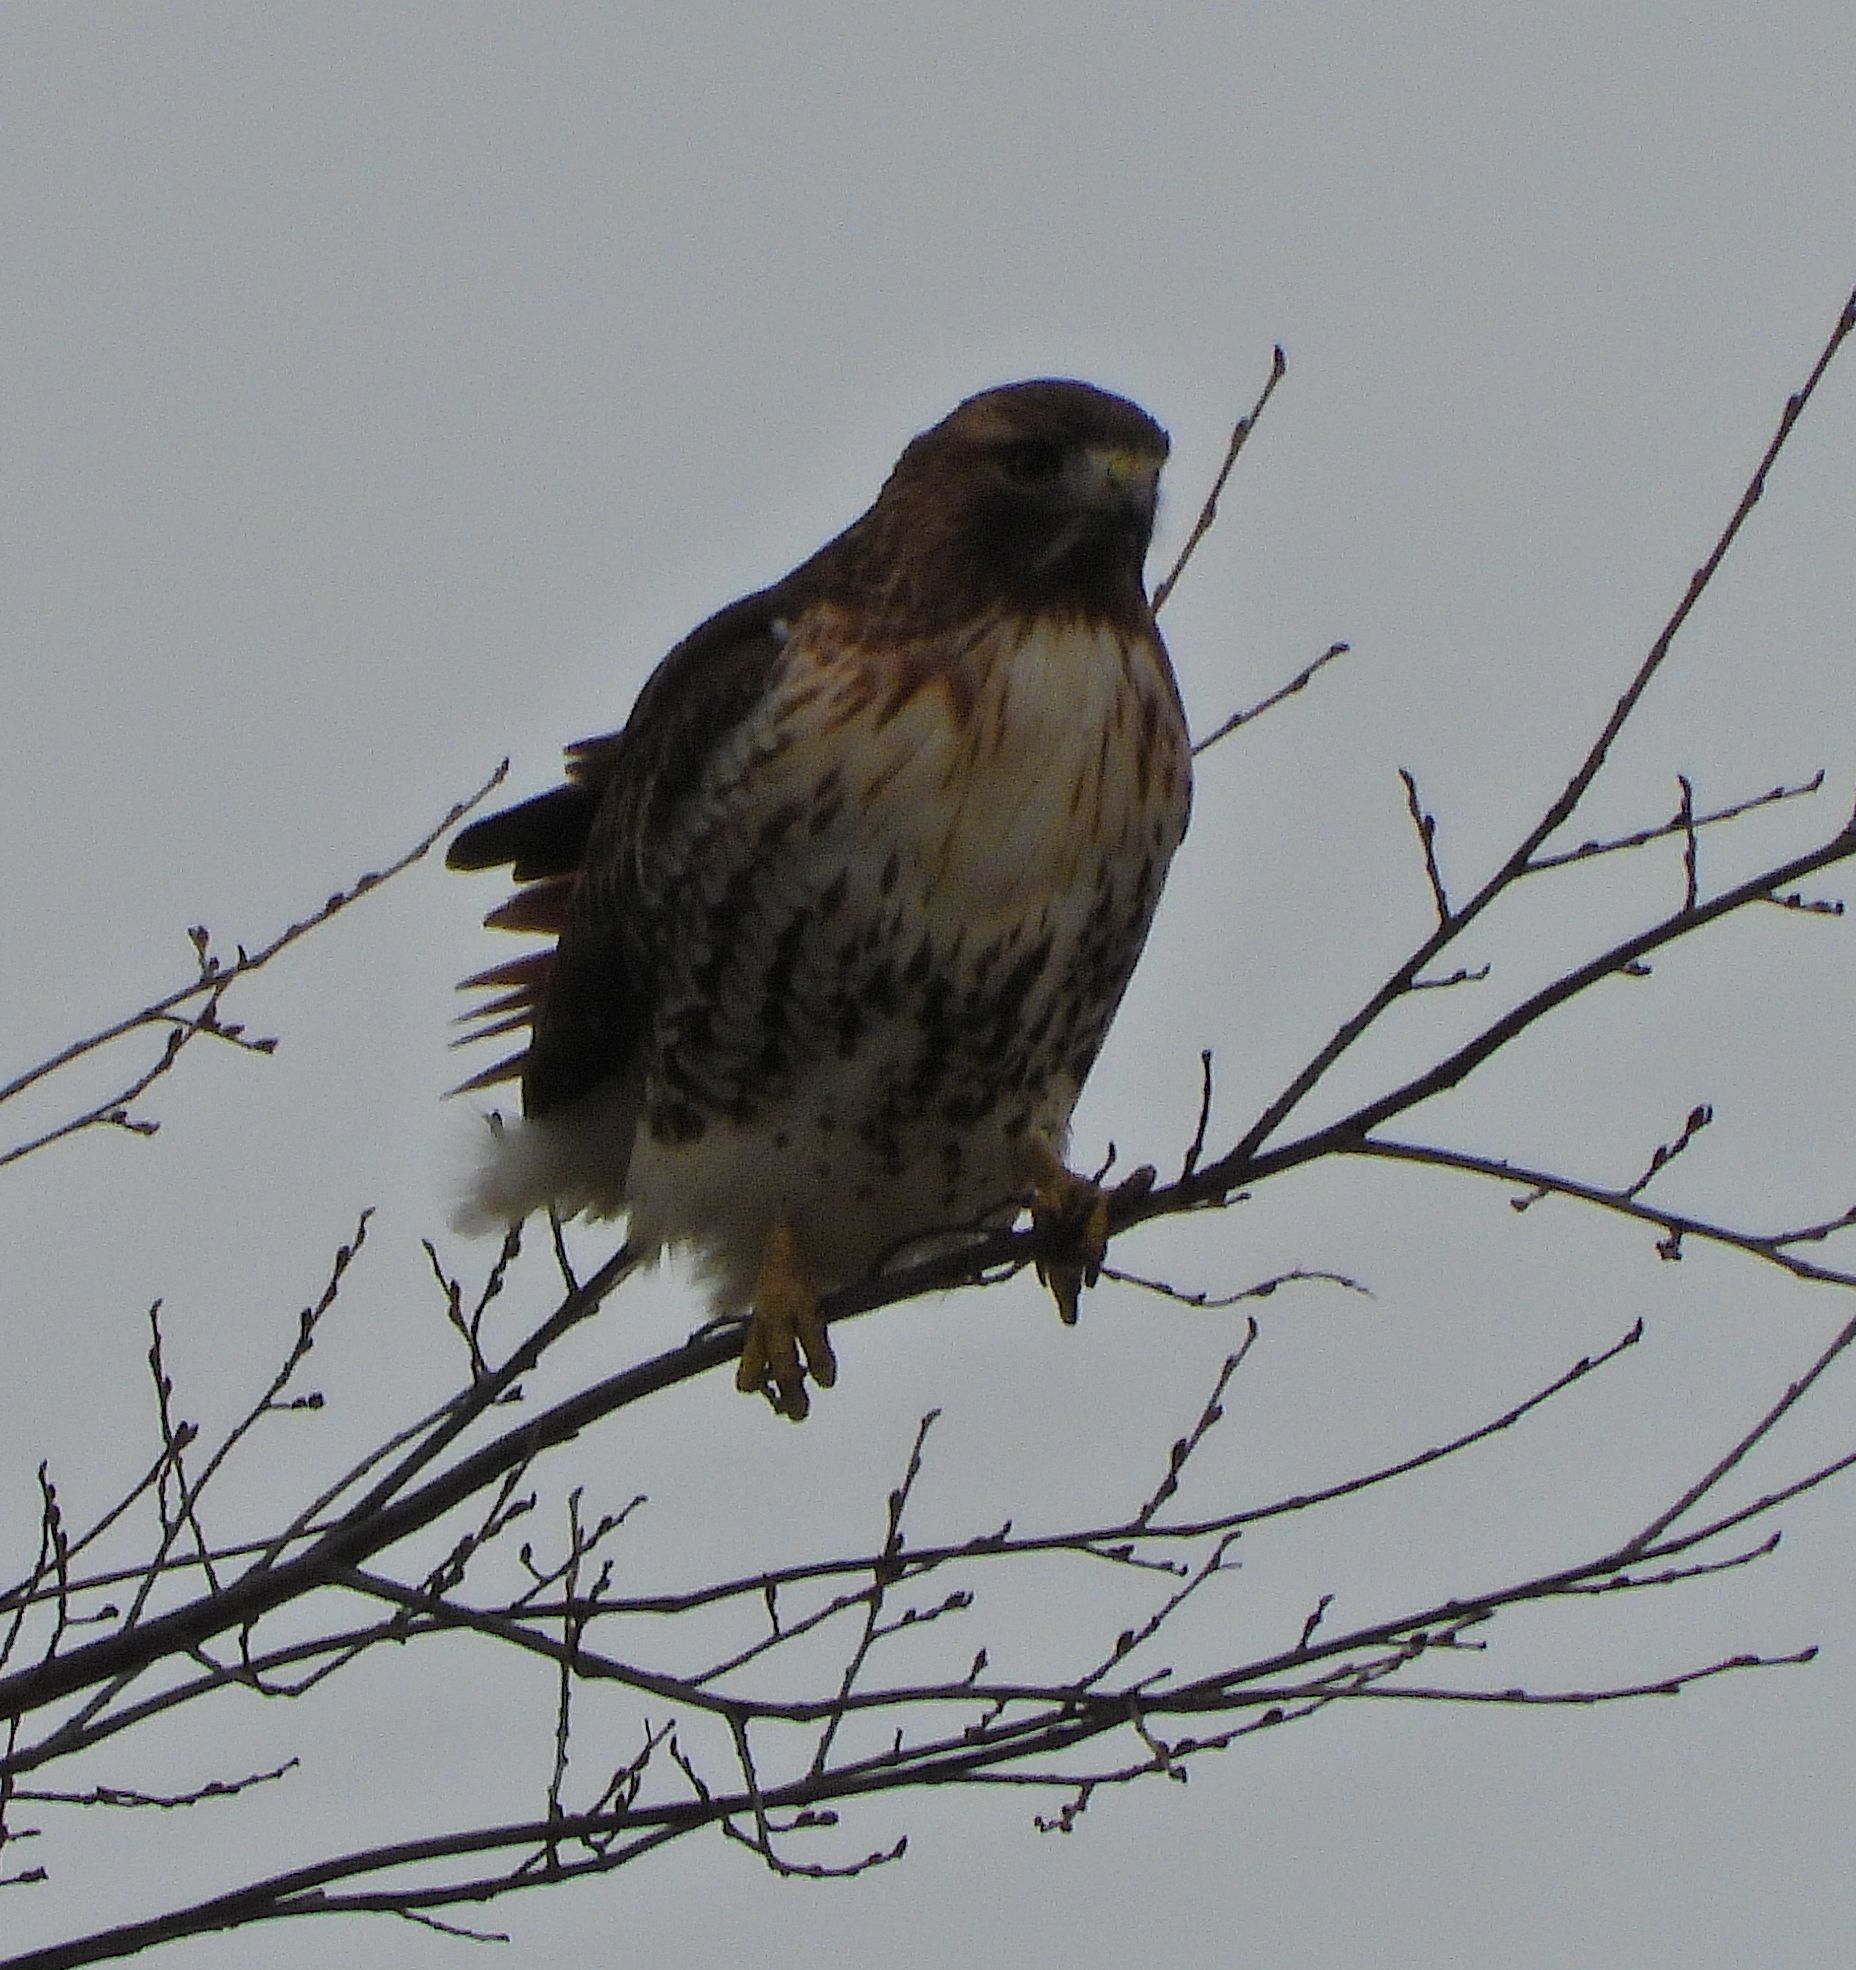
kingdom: Animalia
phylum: Chordata
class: Aves
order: Accipitriformes
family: Accipitridae
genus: Buteo
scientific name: Buteo jamaicensis
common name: Red-tailed hawk
